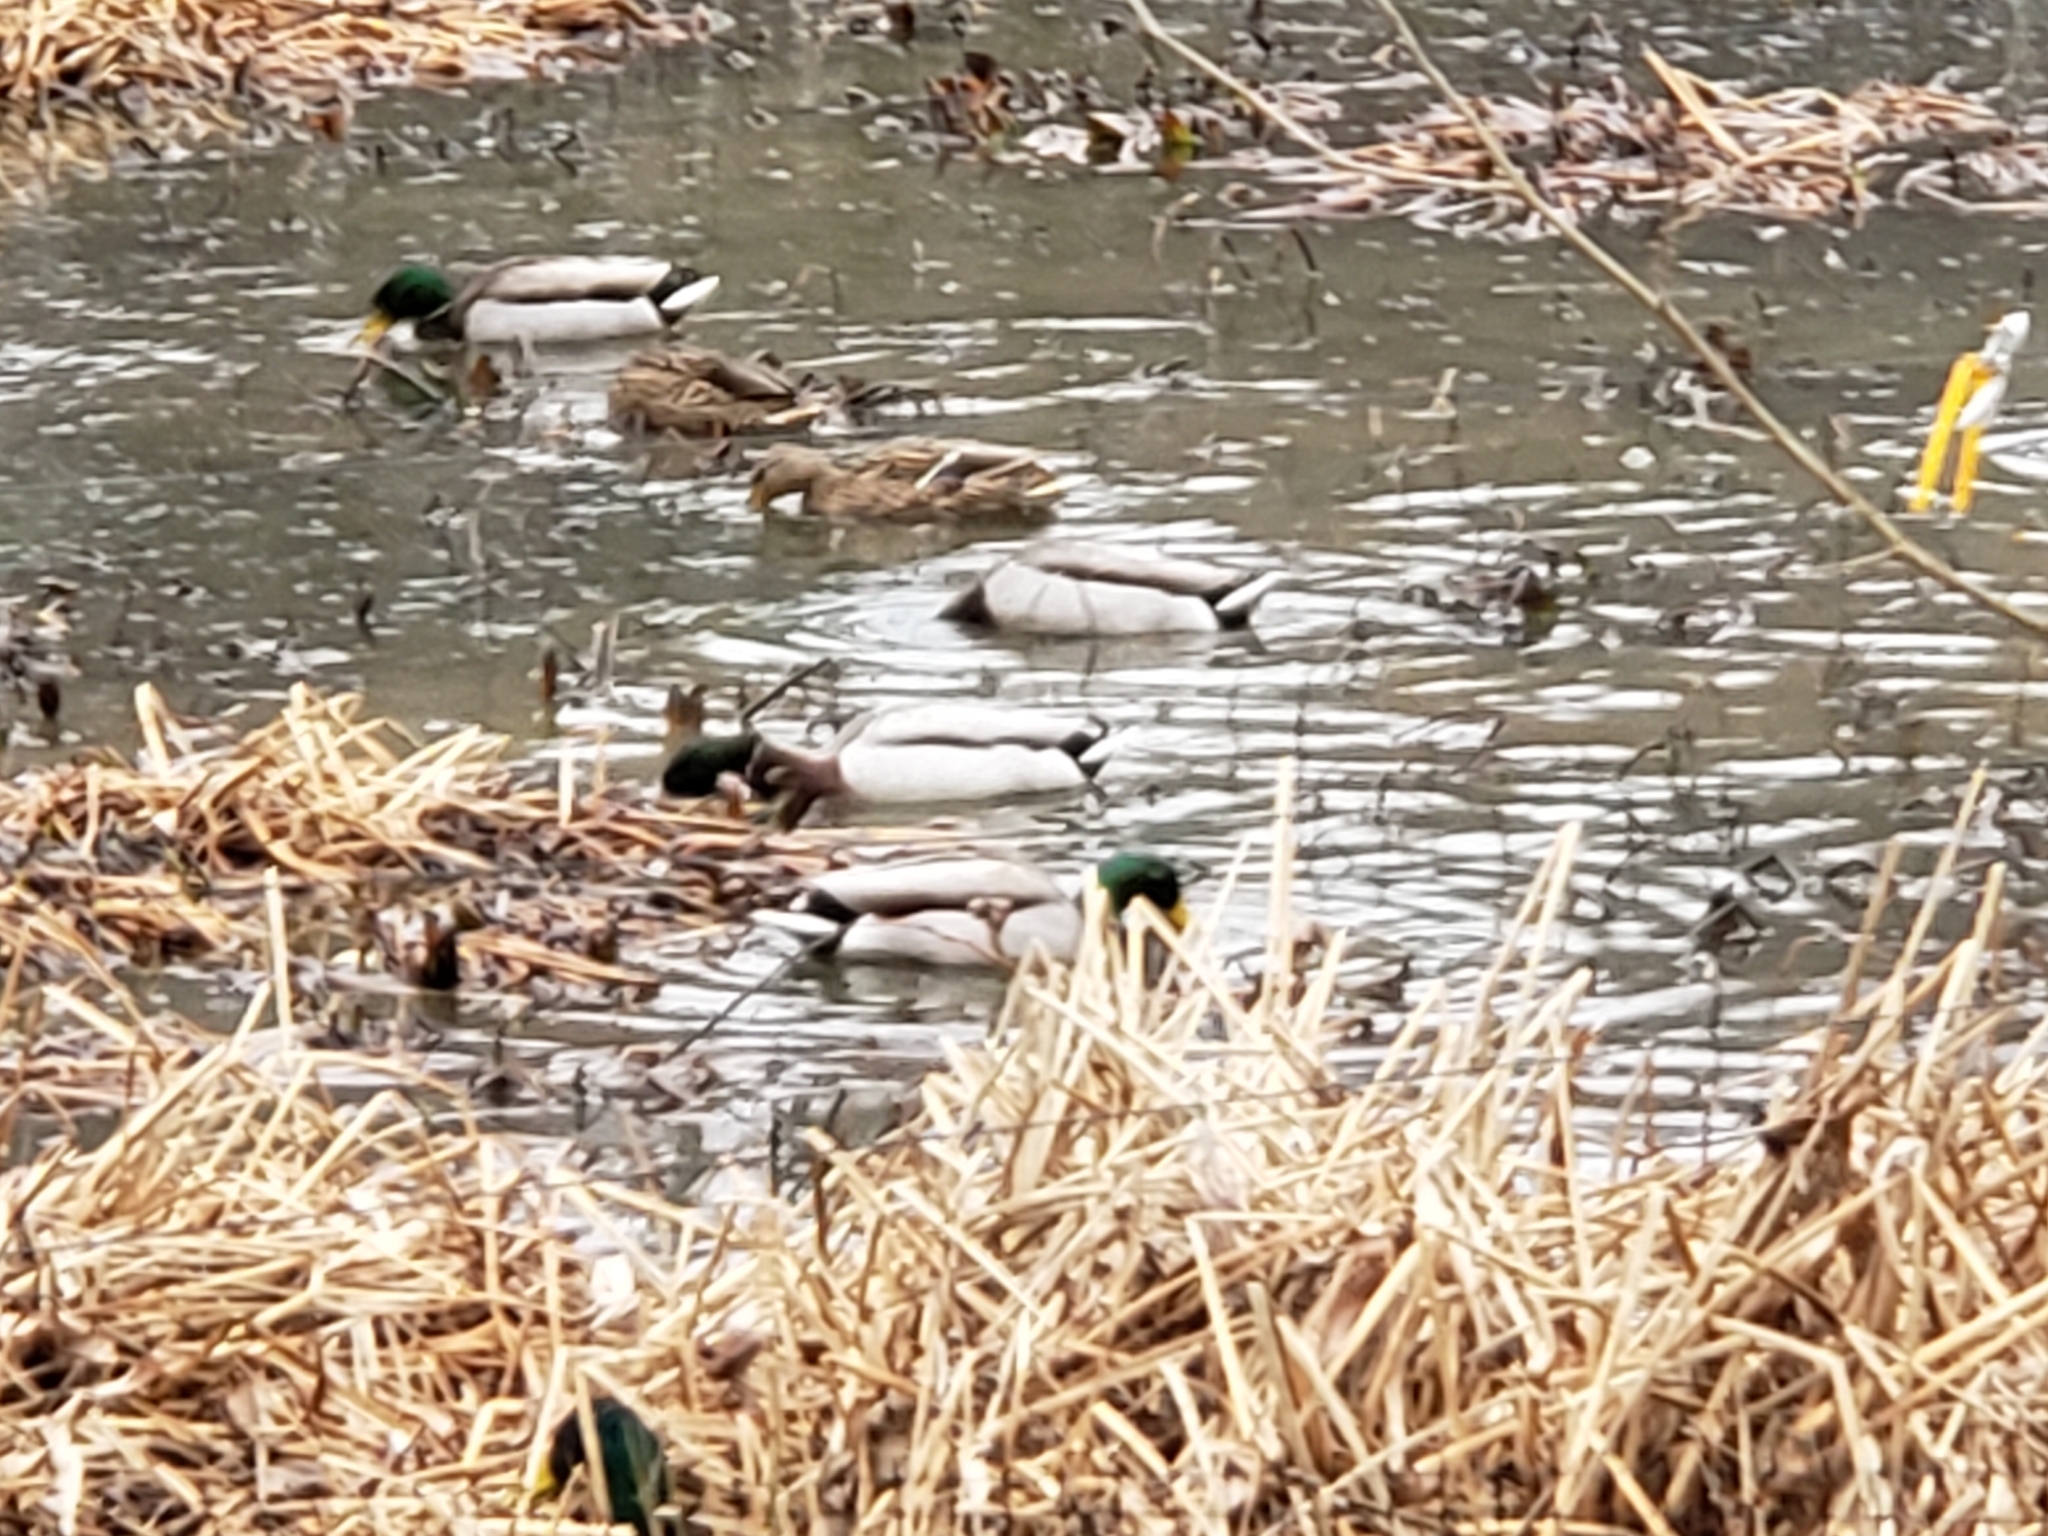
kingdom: Animalia
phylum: Chordata
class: Aves
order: Anseriformes
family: Anatidae
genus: Anas
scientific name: Anas platyrhynchos
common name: Mallard
